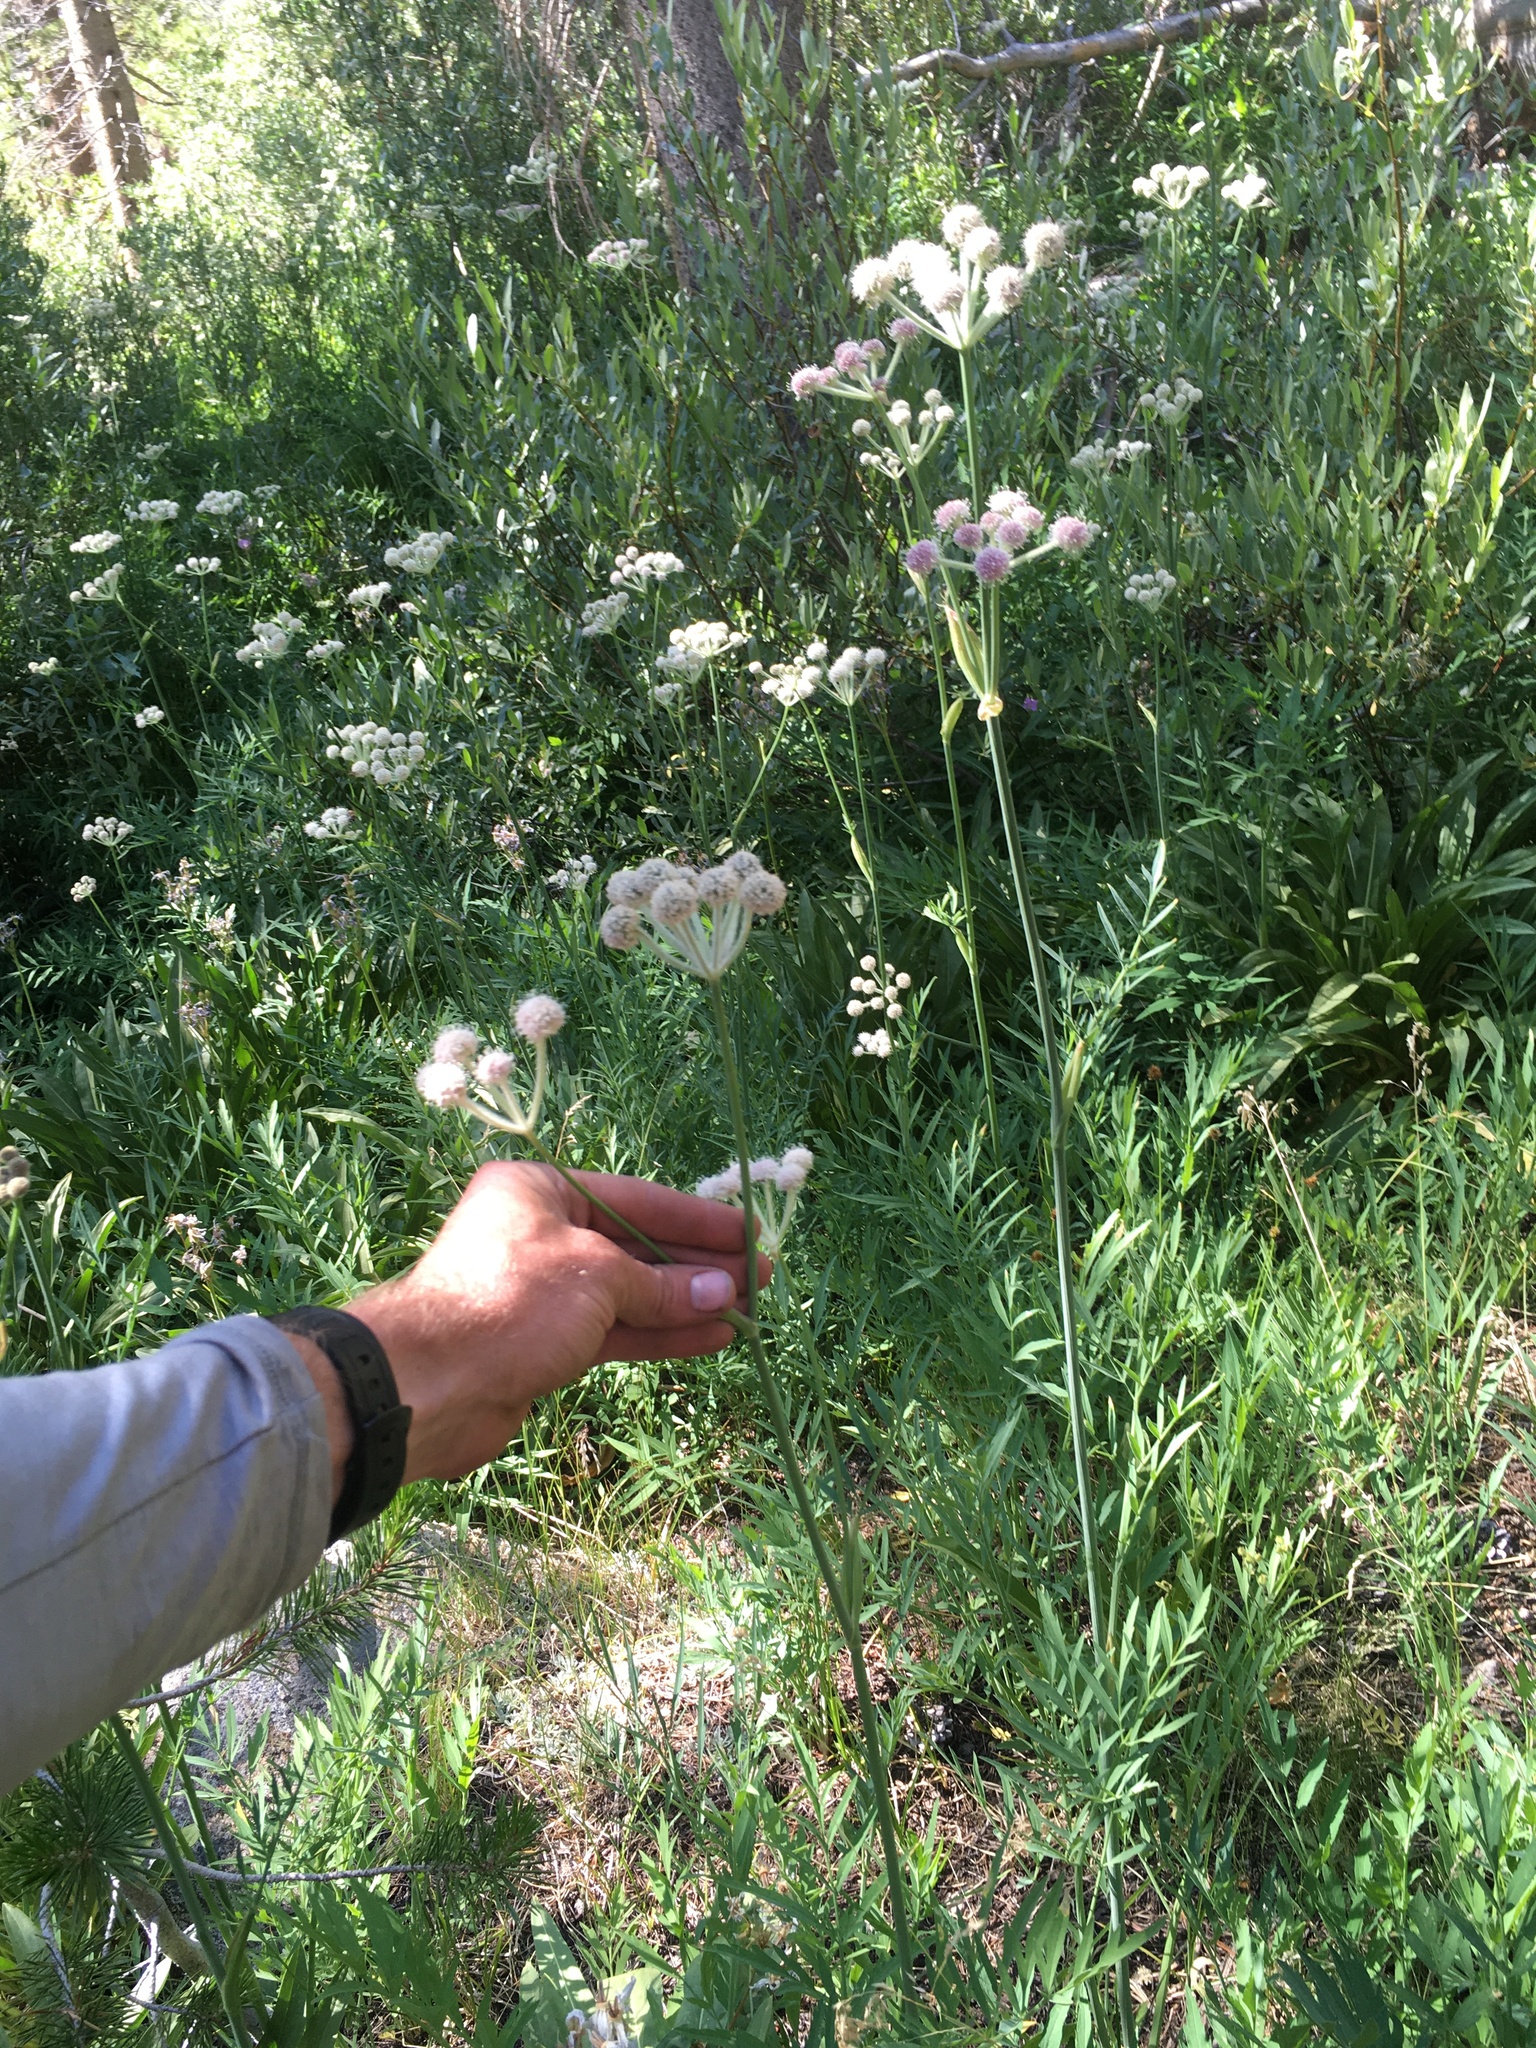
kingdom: Plantae
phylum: Tracheophyta
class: Magnoliopsida
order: Apiales
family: Apiaceae
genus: Angelica
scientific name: Angelica capitellata
